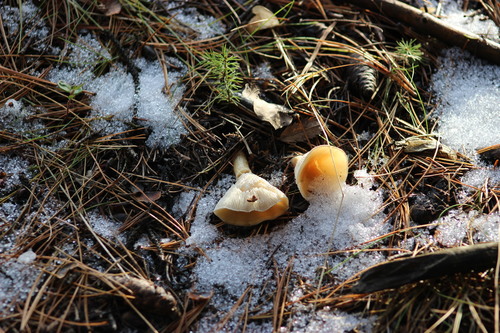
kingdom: Fungi
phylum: Basidiomycota
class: Agaricomycetes
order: Agaricales
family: Tricholomataceae
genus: Clitocybe
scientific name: Clitocybe
